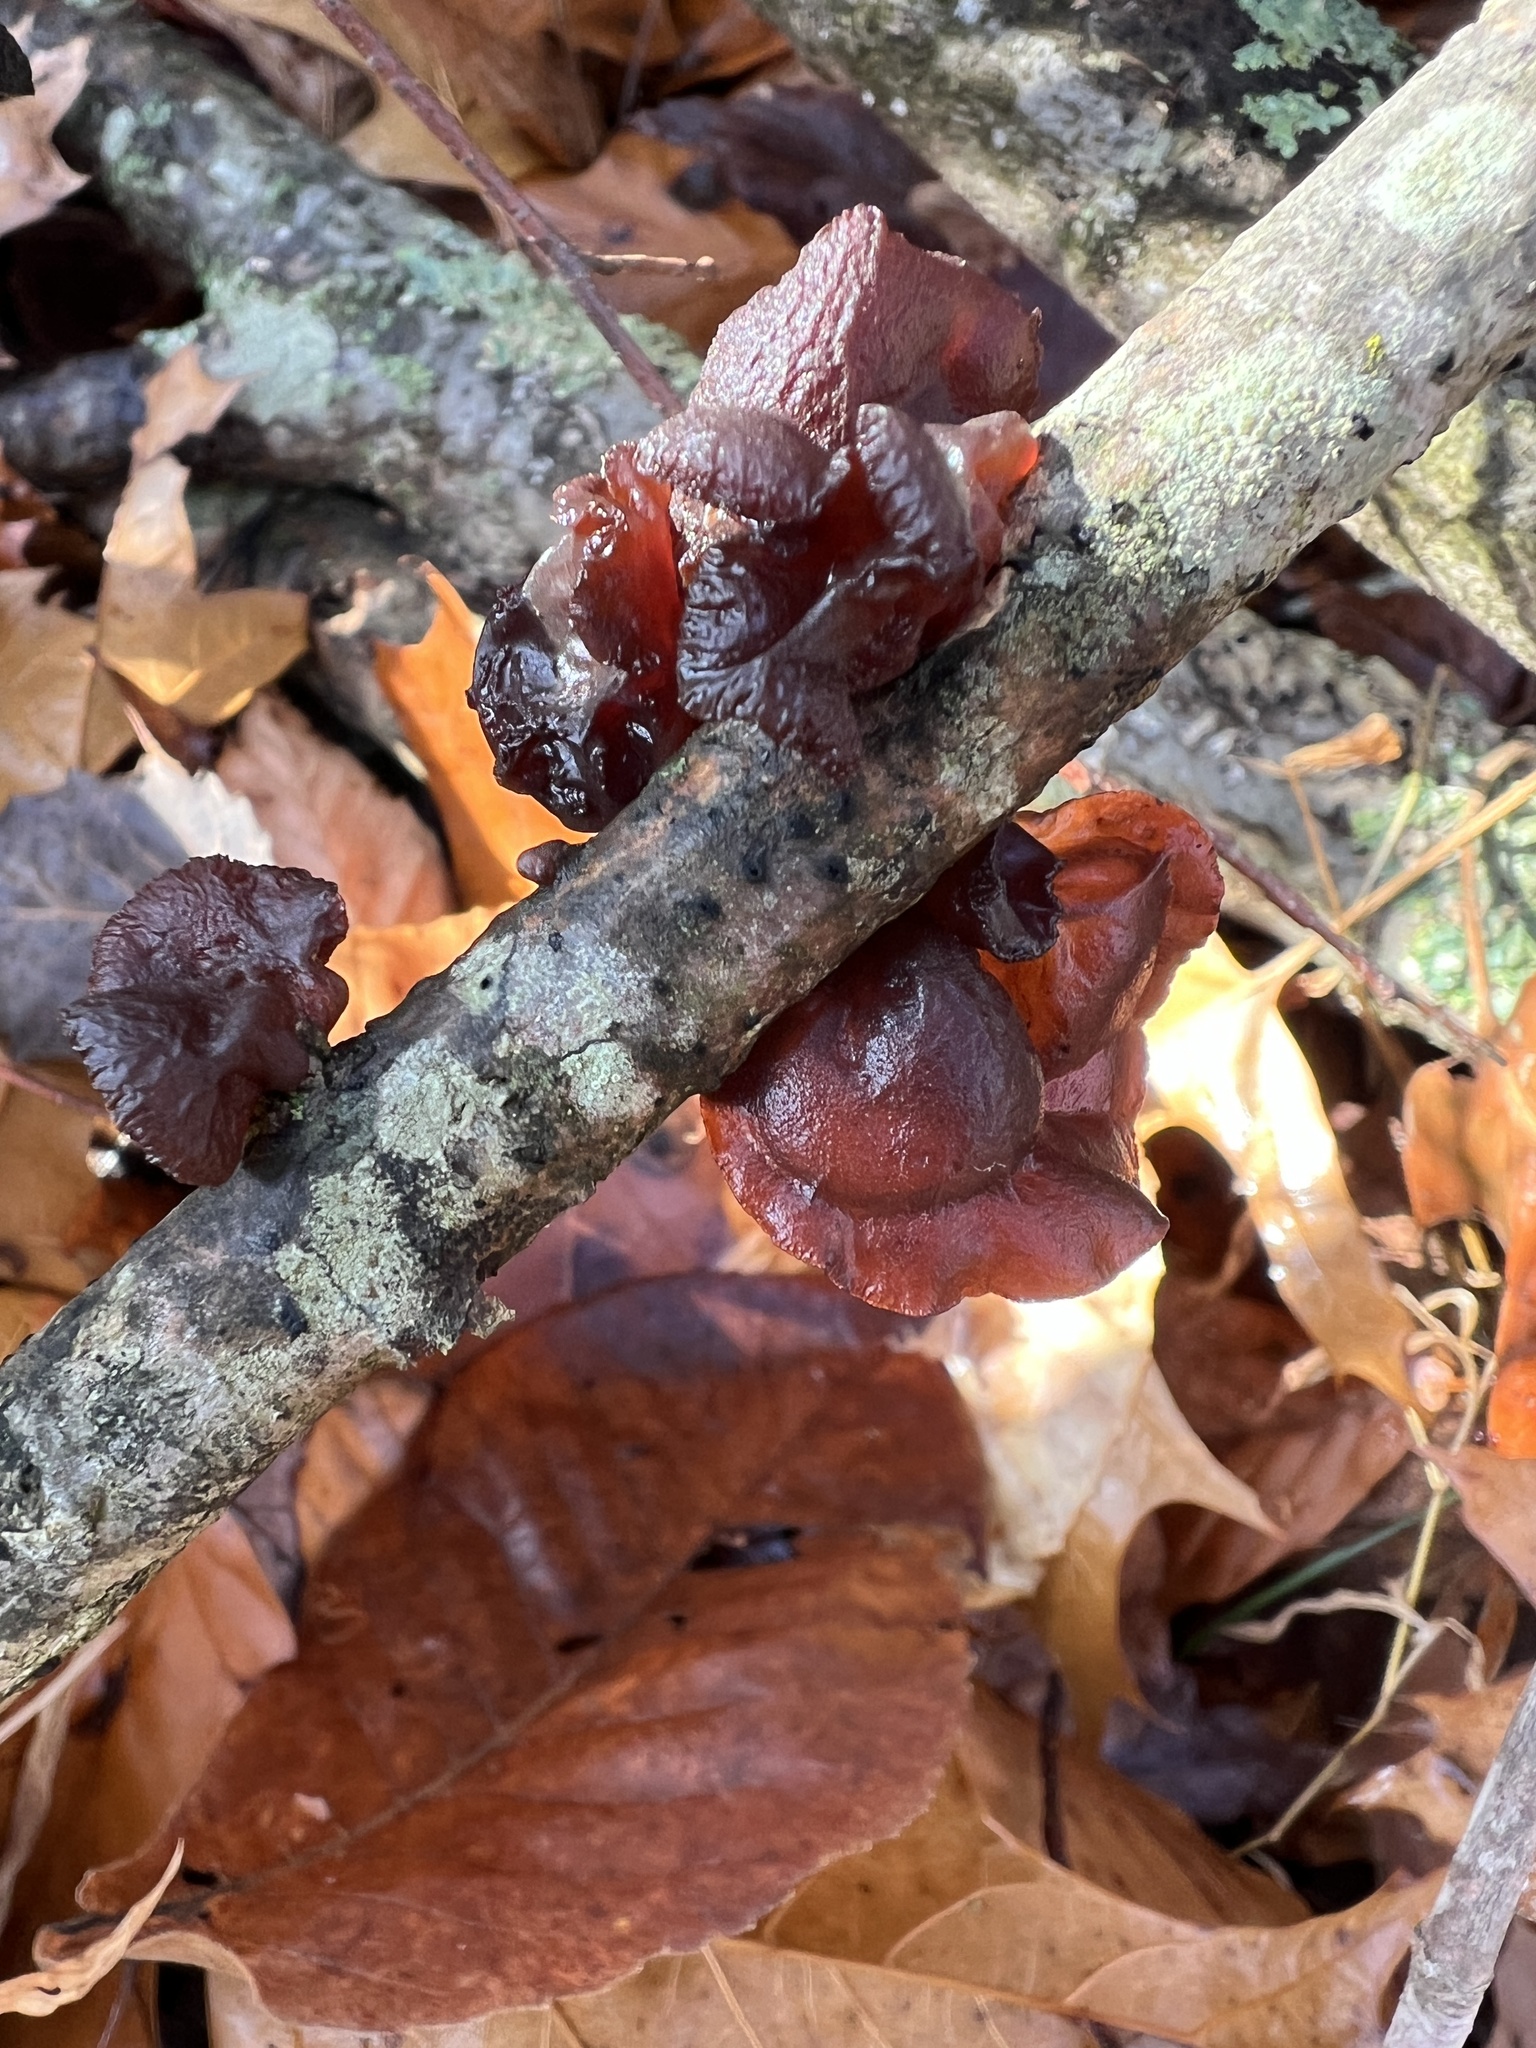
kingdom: Fungi
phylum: Basidiomycota
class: Agaricomycetes
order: Auriculariales
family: Auriculariaceae
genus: Exidia
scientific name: Exidia
